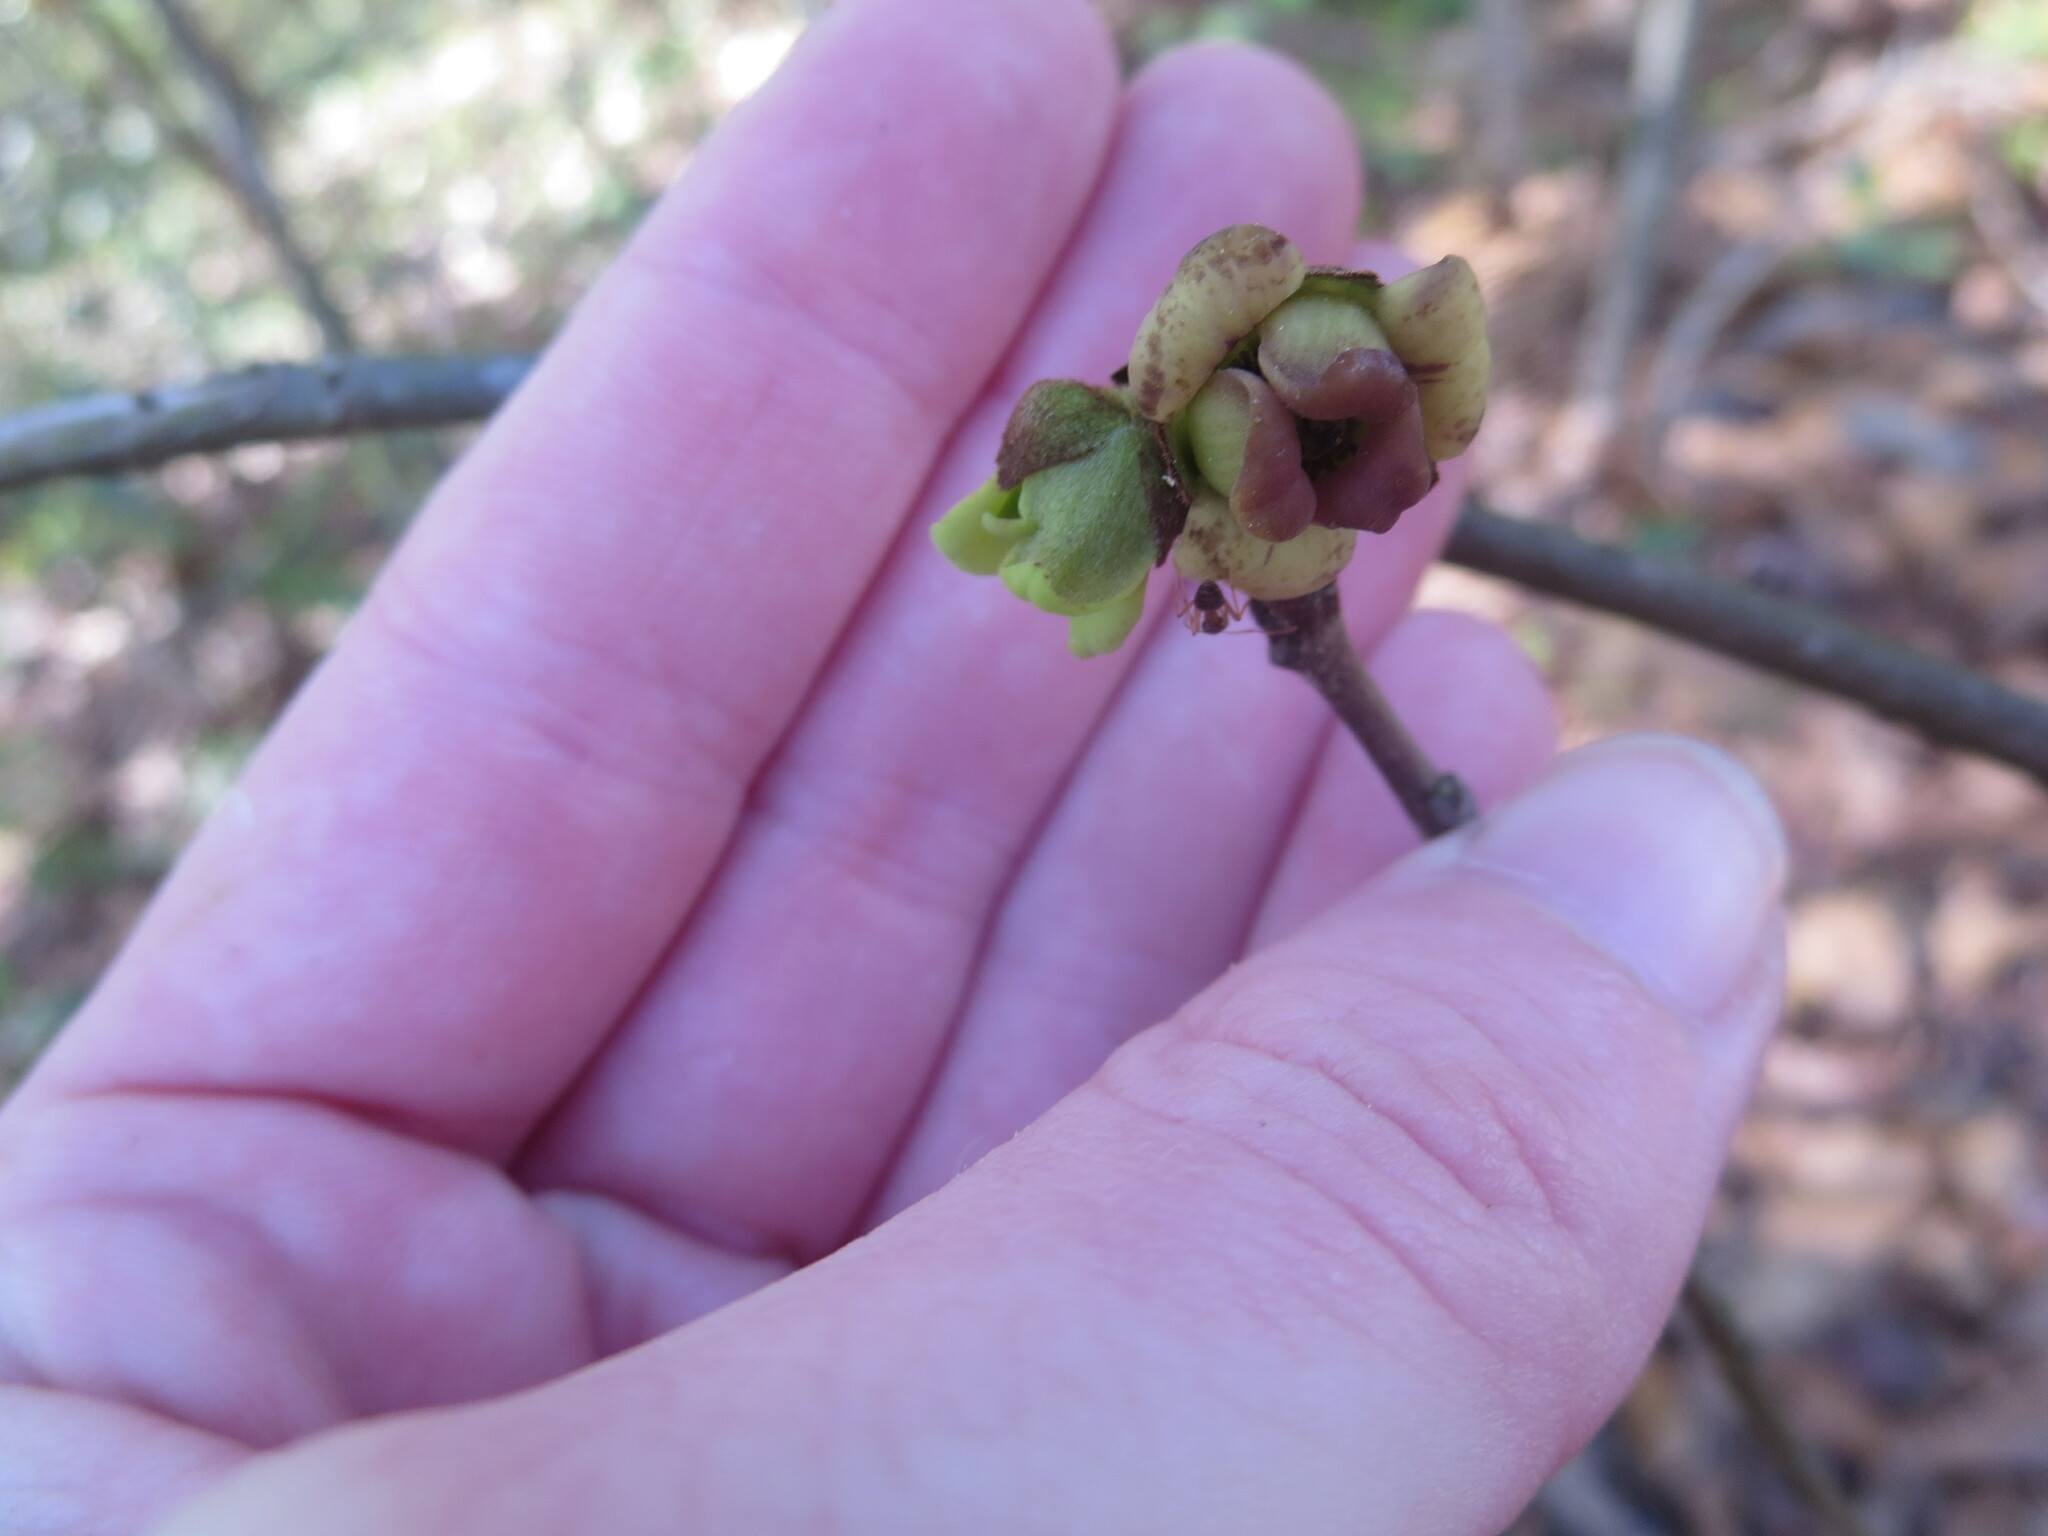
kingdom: Plantae
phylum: Tracheophyta
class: Magnoliopsida
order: Magnoliales
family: Annonaceae
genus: Asimina
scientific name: Asimina parviflora
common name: Dwarf pawpaw
